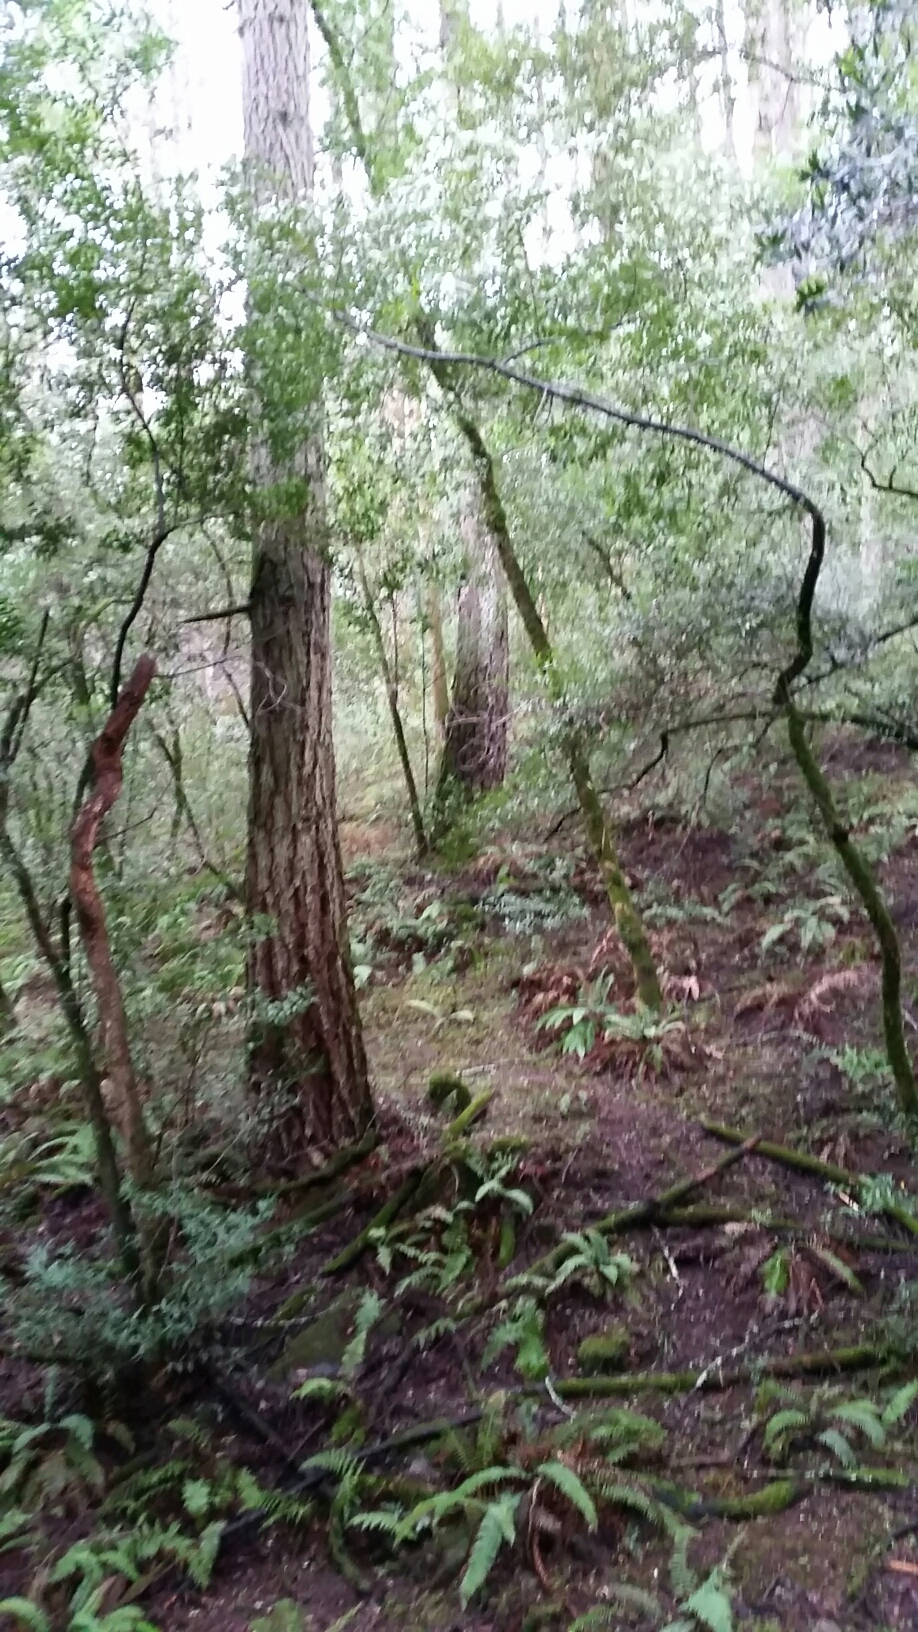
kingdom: Plantae
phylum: Tracheophyta
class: Polypodiopsida
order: Polypodiales
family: Dryopteridaceae
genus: Polystichum
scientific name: Polystichum munitum
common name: Western sword-fern
